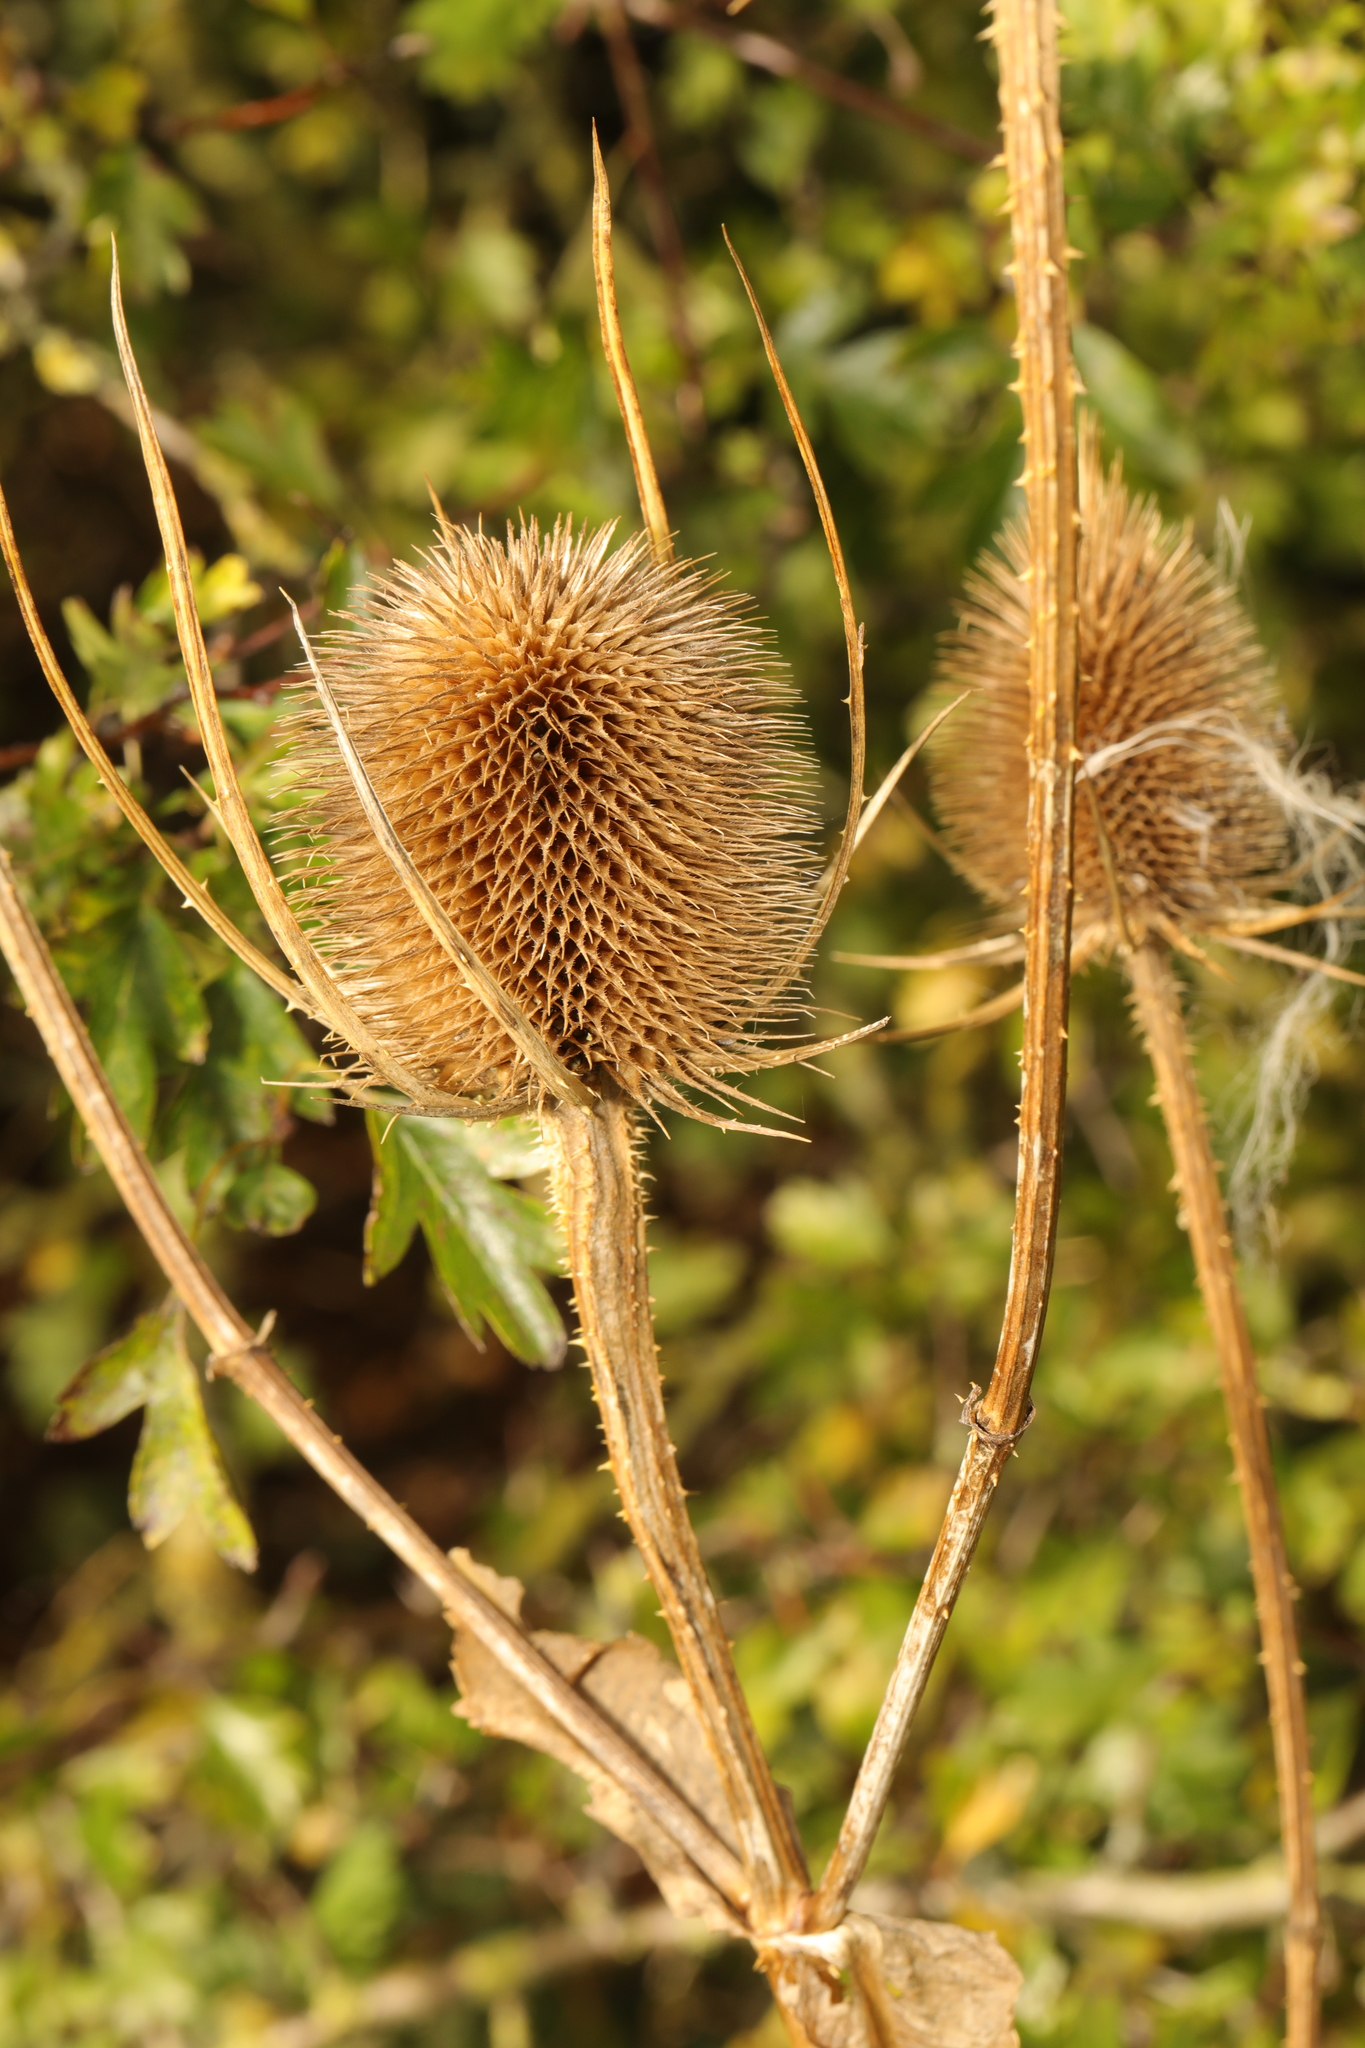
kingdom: Plantae
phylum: Tracheophyta
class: Magnoliopsida
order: Dipsacales
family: Caprifoliaceae
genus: Dipsacus
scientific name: Dipsacus fullonum
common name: Teasel
